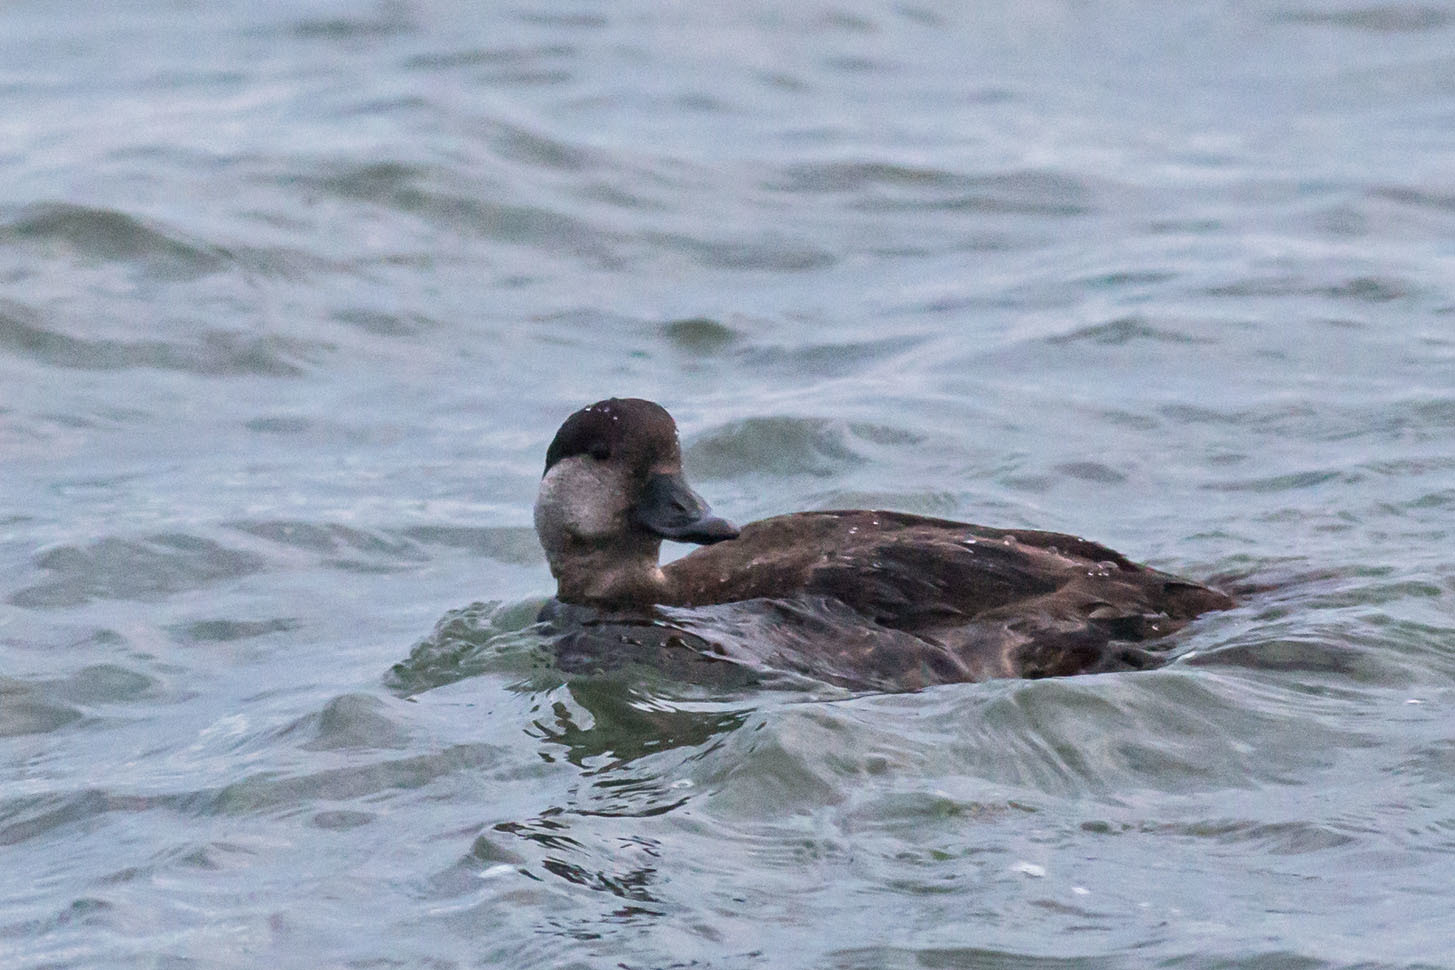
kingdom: Animalia
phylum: Chordata
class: Aves
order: Anseriformes
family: Anatidae
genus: Melanitta
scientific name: Melanitta americana
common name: Black scoter
